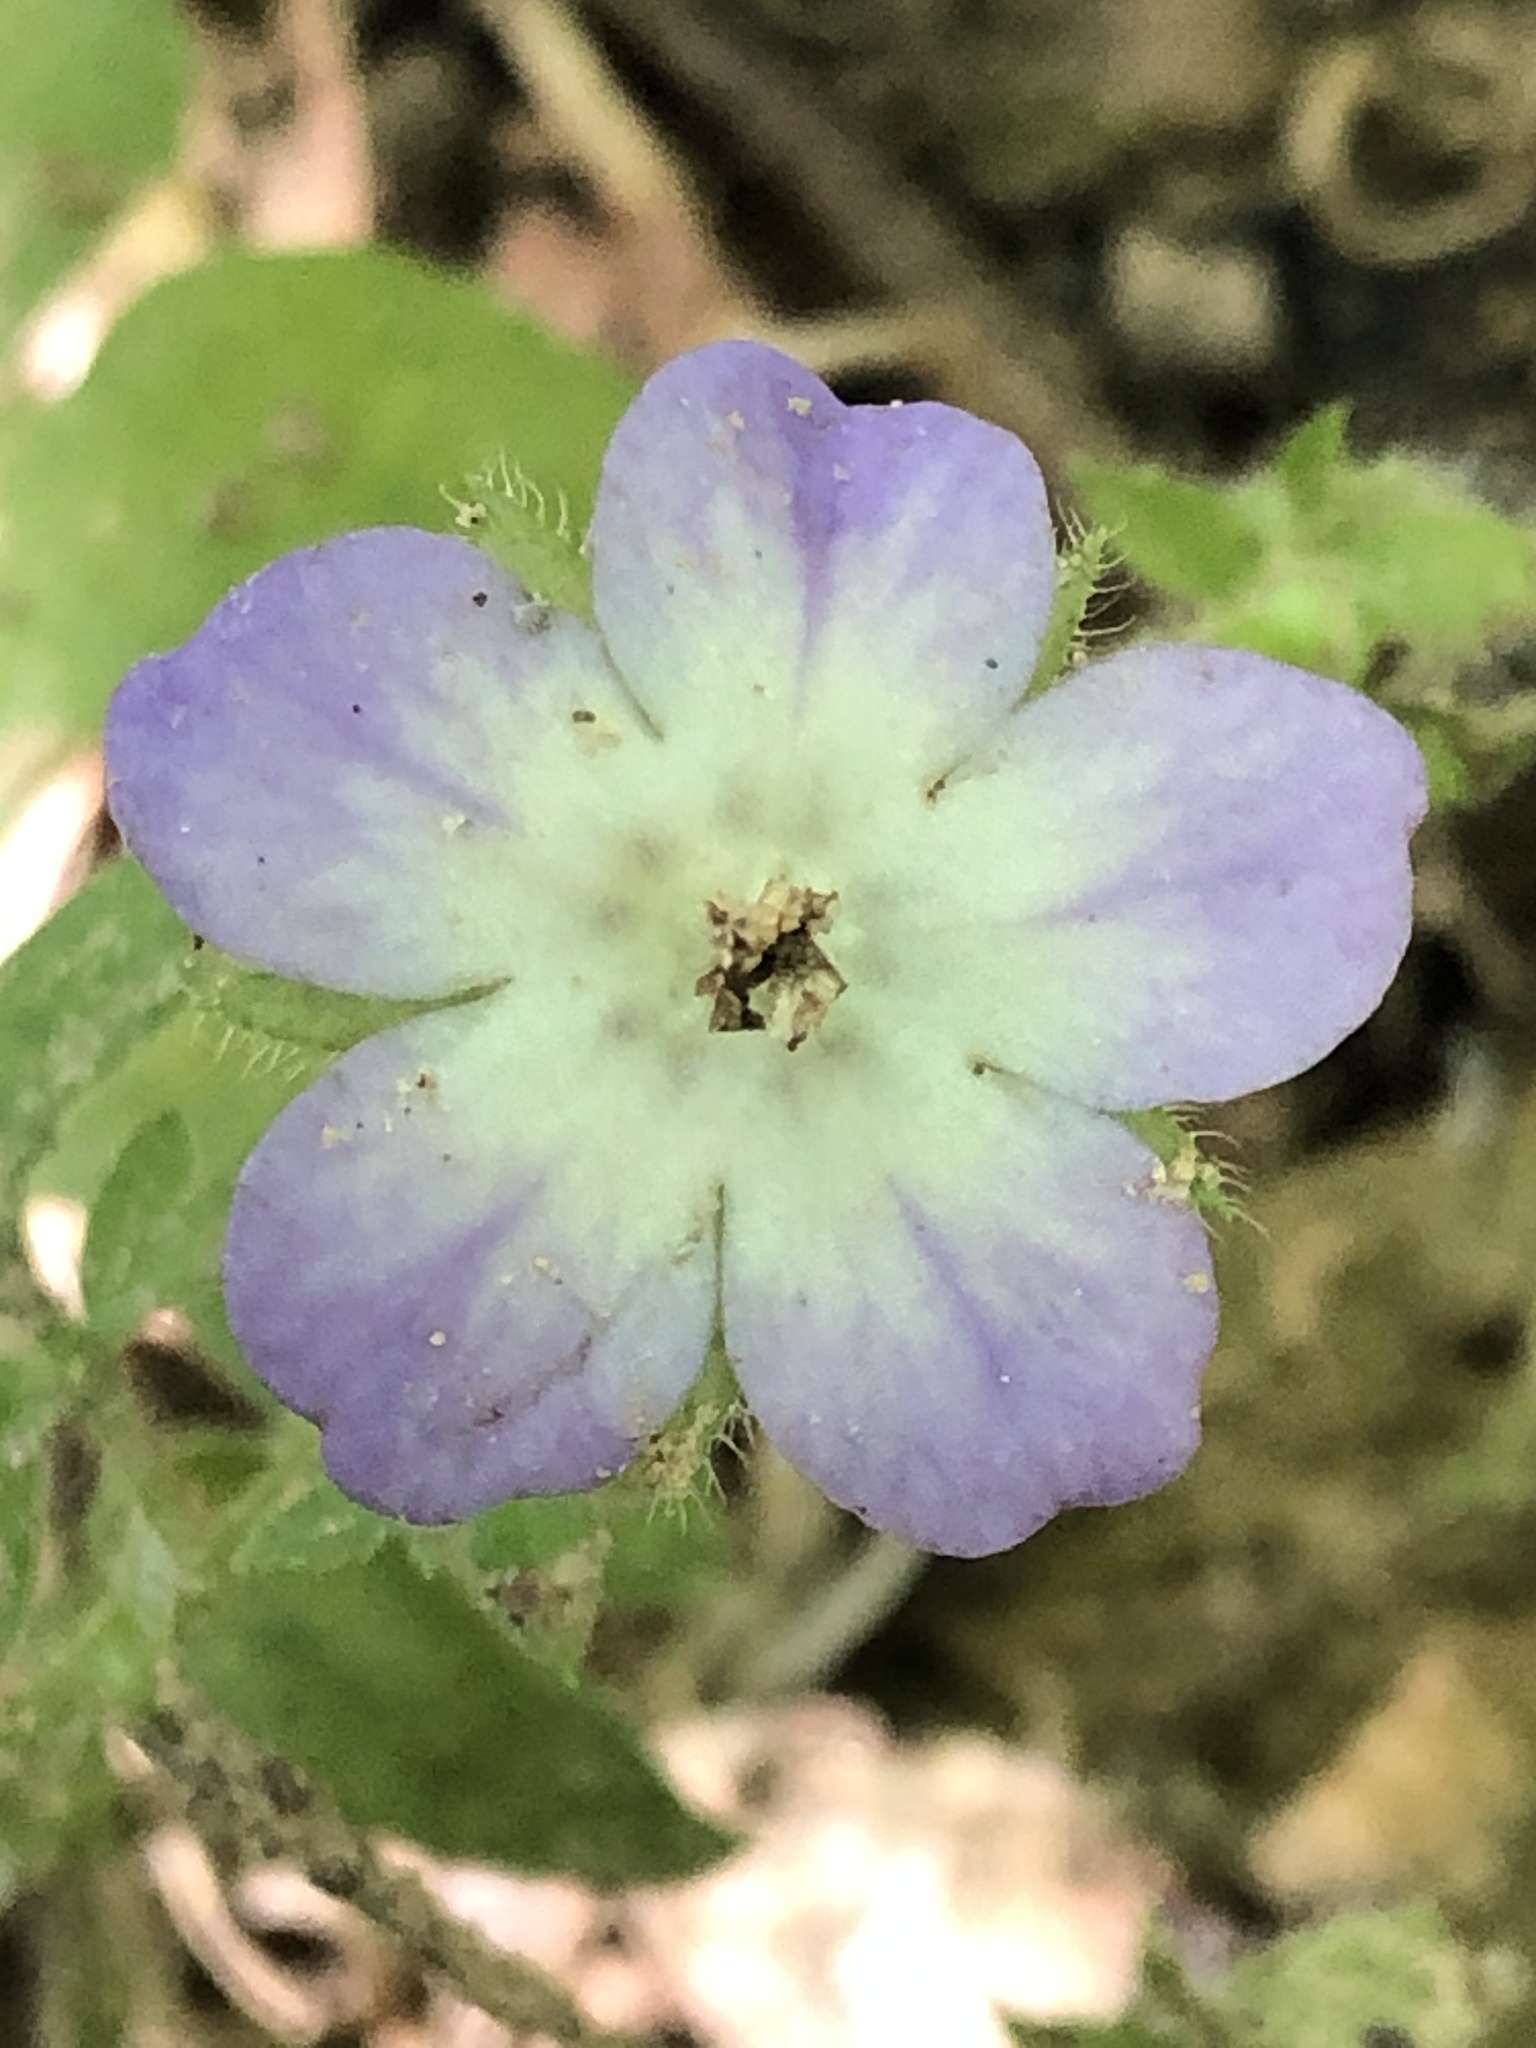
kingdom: Plantae
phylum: Tracheophyta
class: Magnoliopsida
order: Boraginales
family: Hydrophyllaceae
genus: Nemophila
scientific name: Nemophila phacelioides
